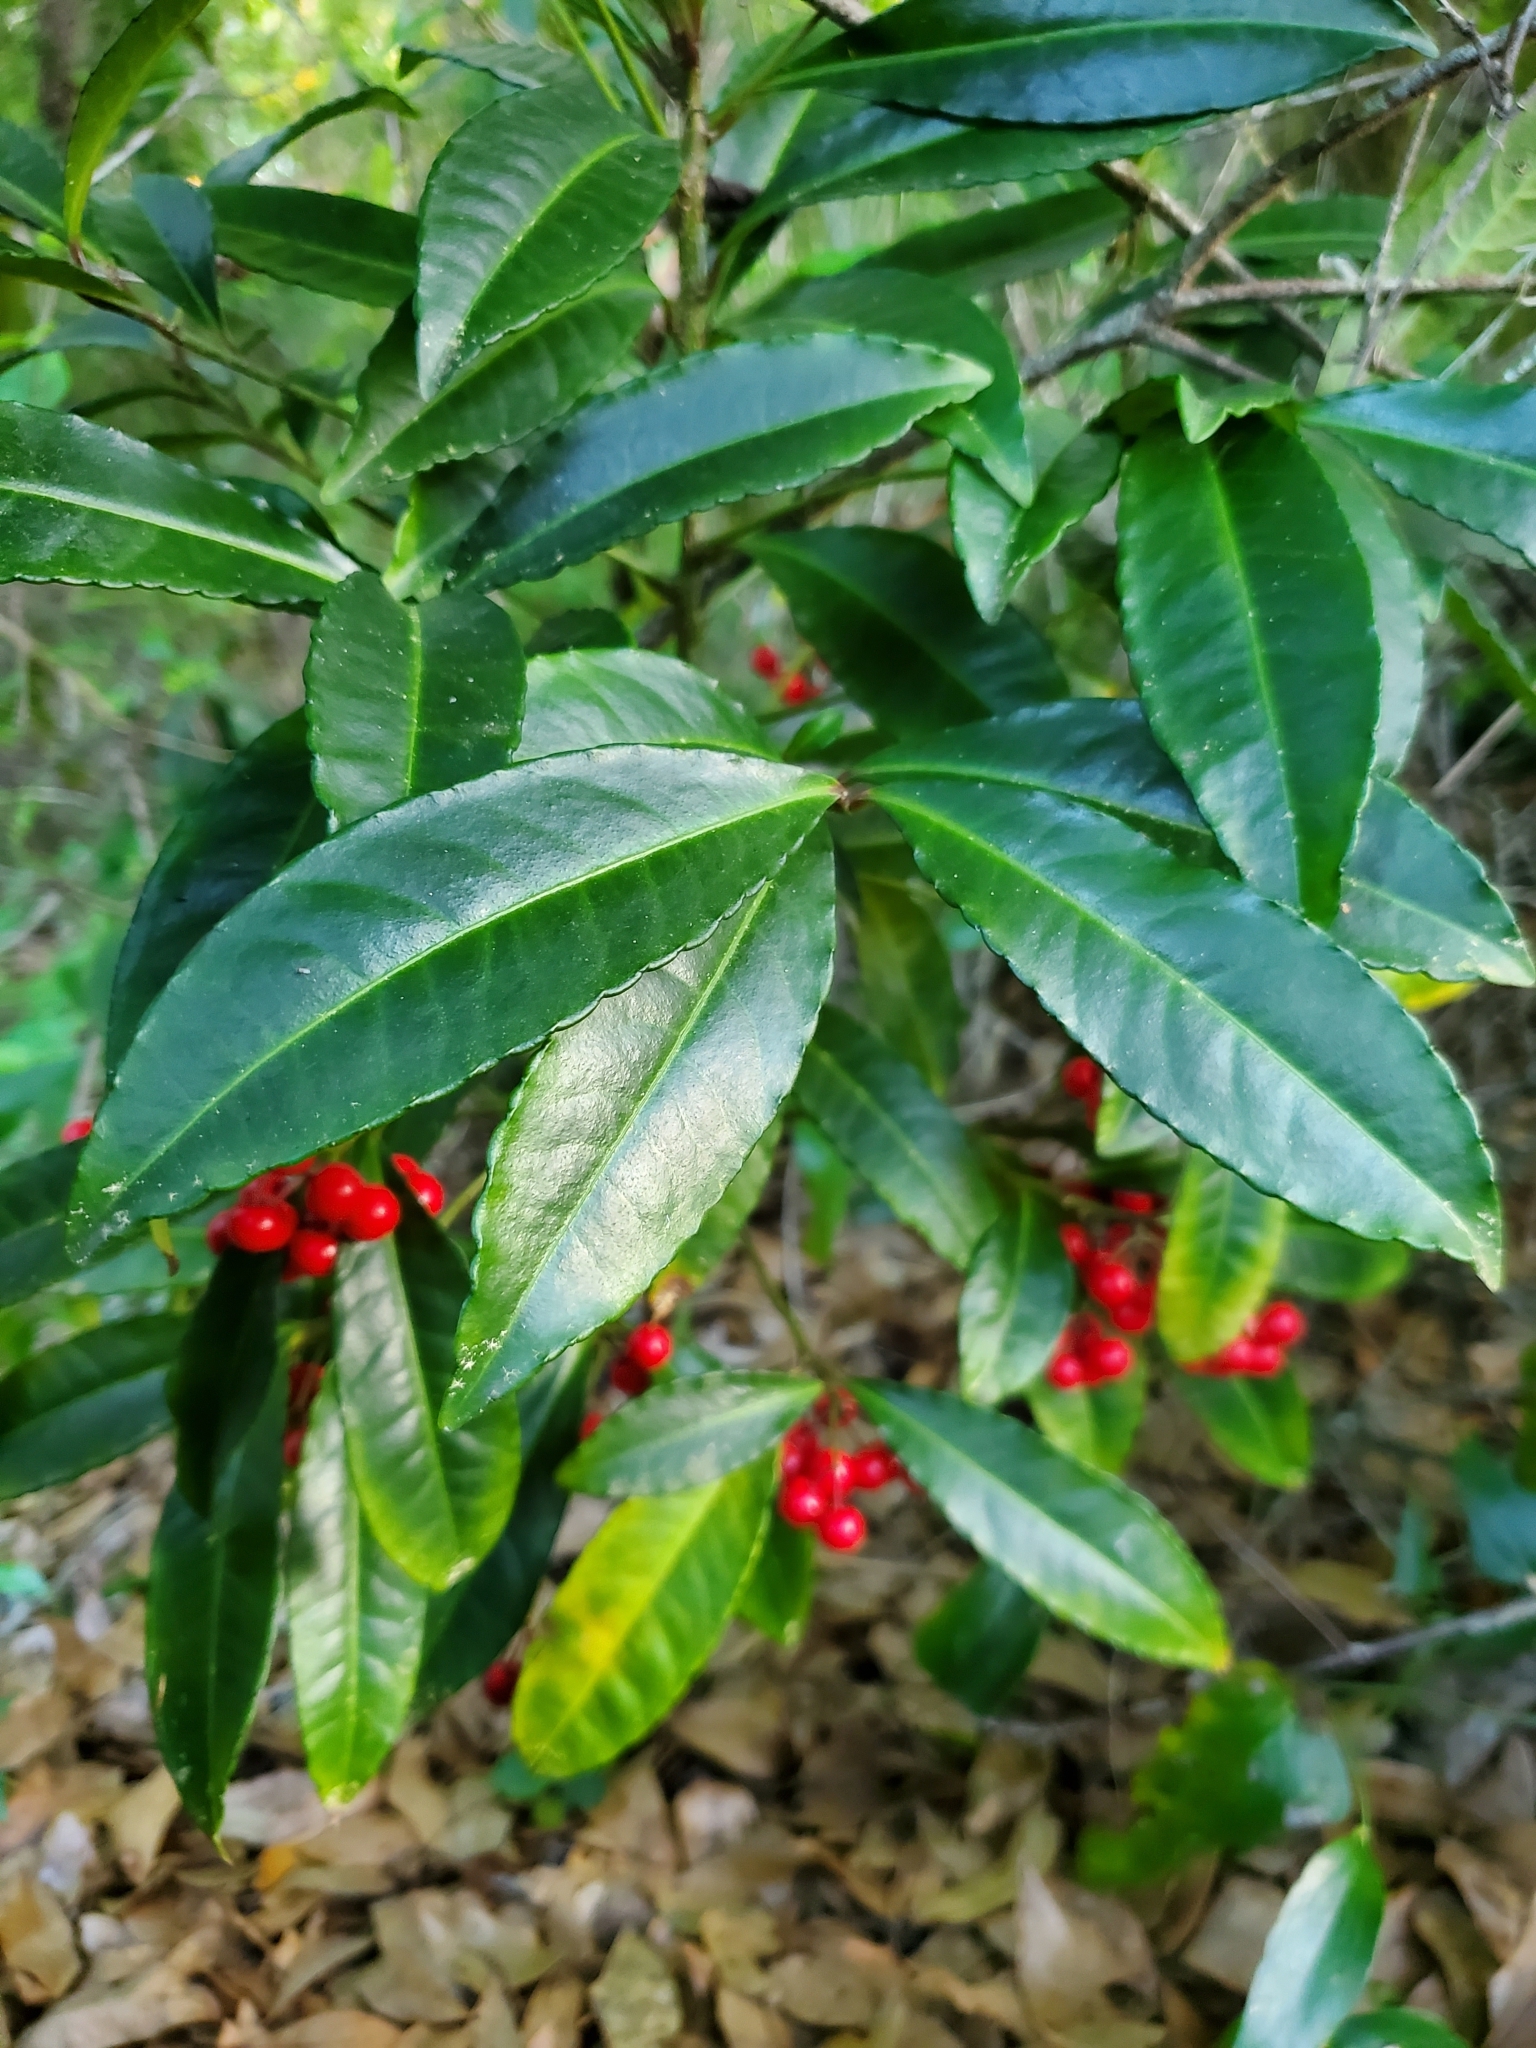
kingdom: Plantae
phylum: Tracheophyta
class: Magnoliopsida
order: Ericales
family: Primulaceae
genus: Ardisia
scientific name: Ardisia crenata
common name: Hen's eyes
